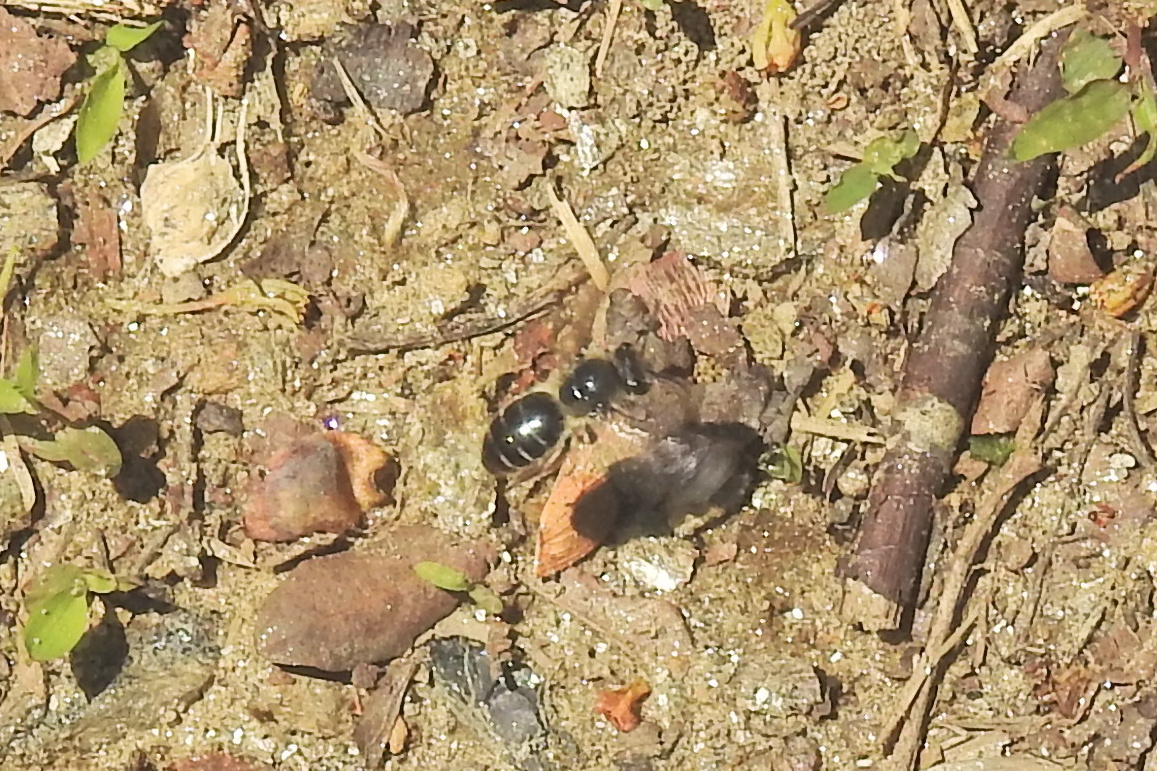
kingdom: Animalia
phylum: Arthropoda
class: Insecta
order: Hymenoptera
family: Colletidae
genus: Colletes
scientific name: Colletes inaequalis
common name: Unequal cellophane bee
